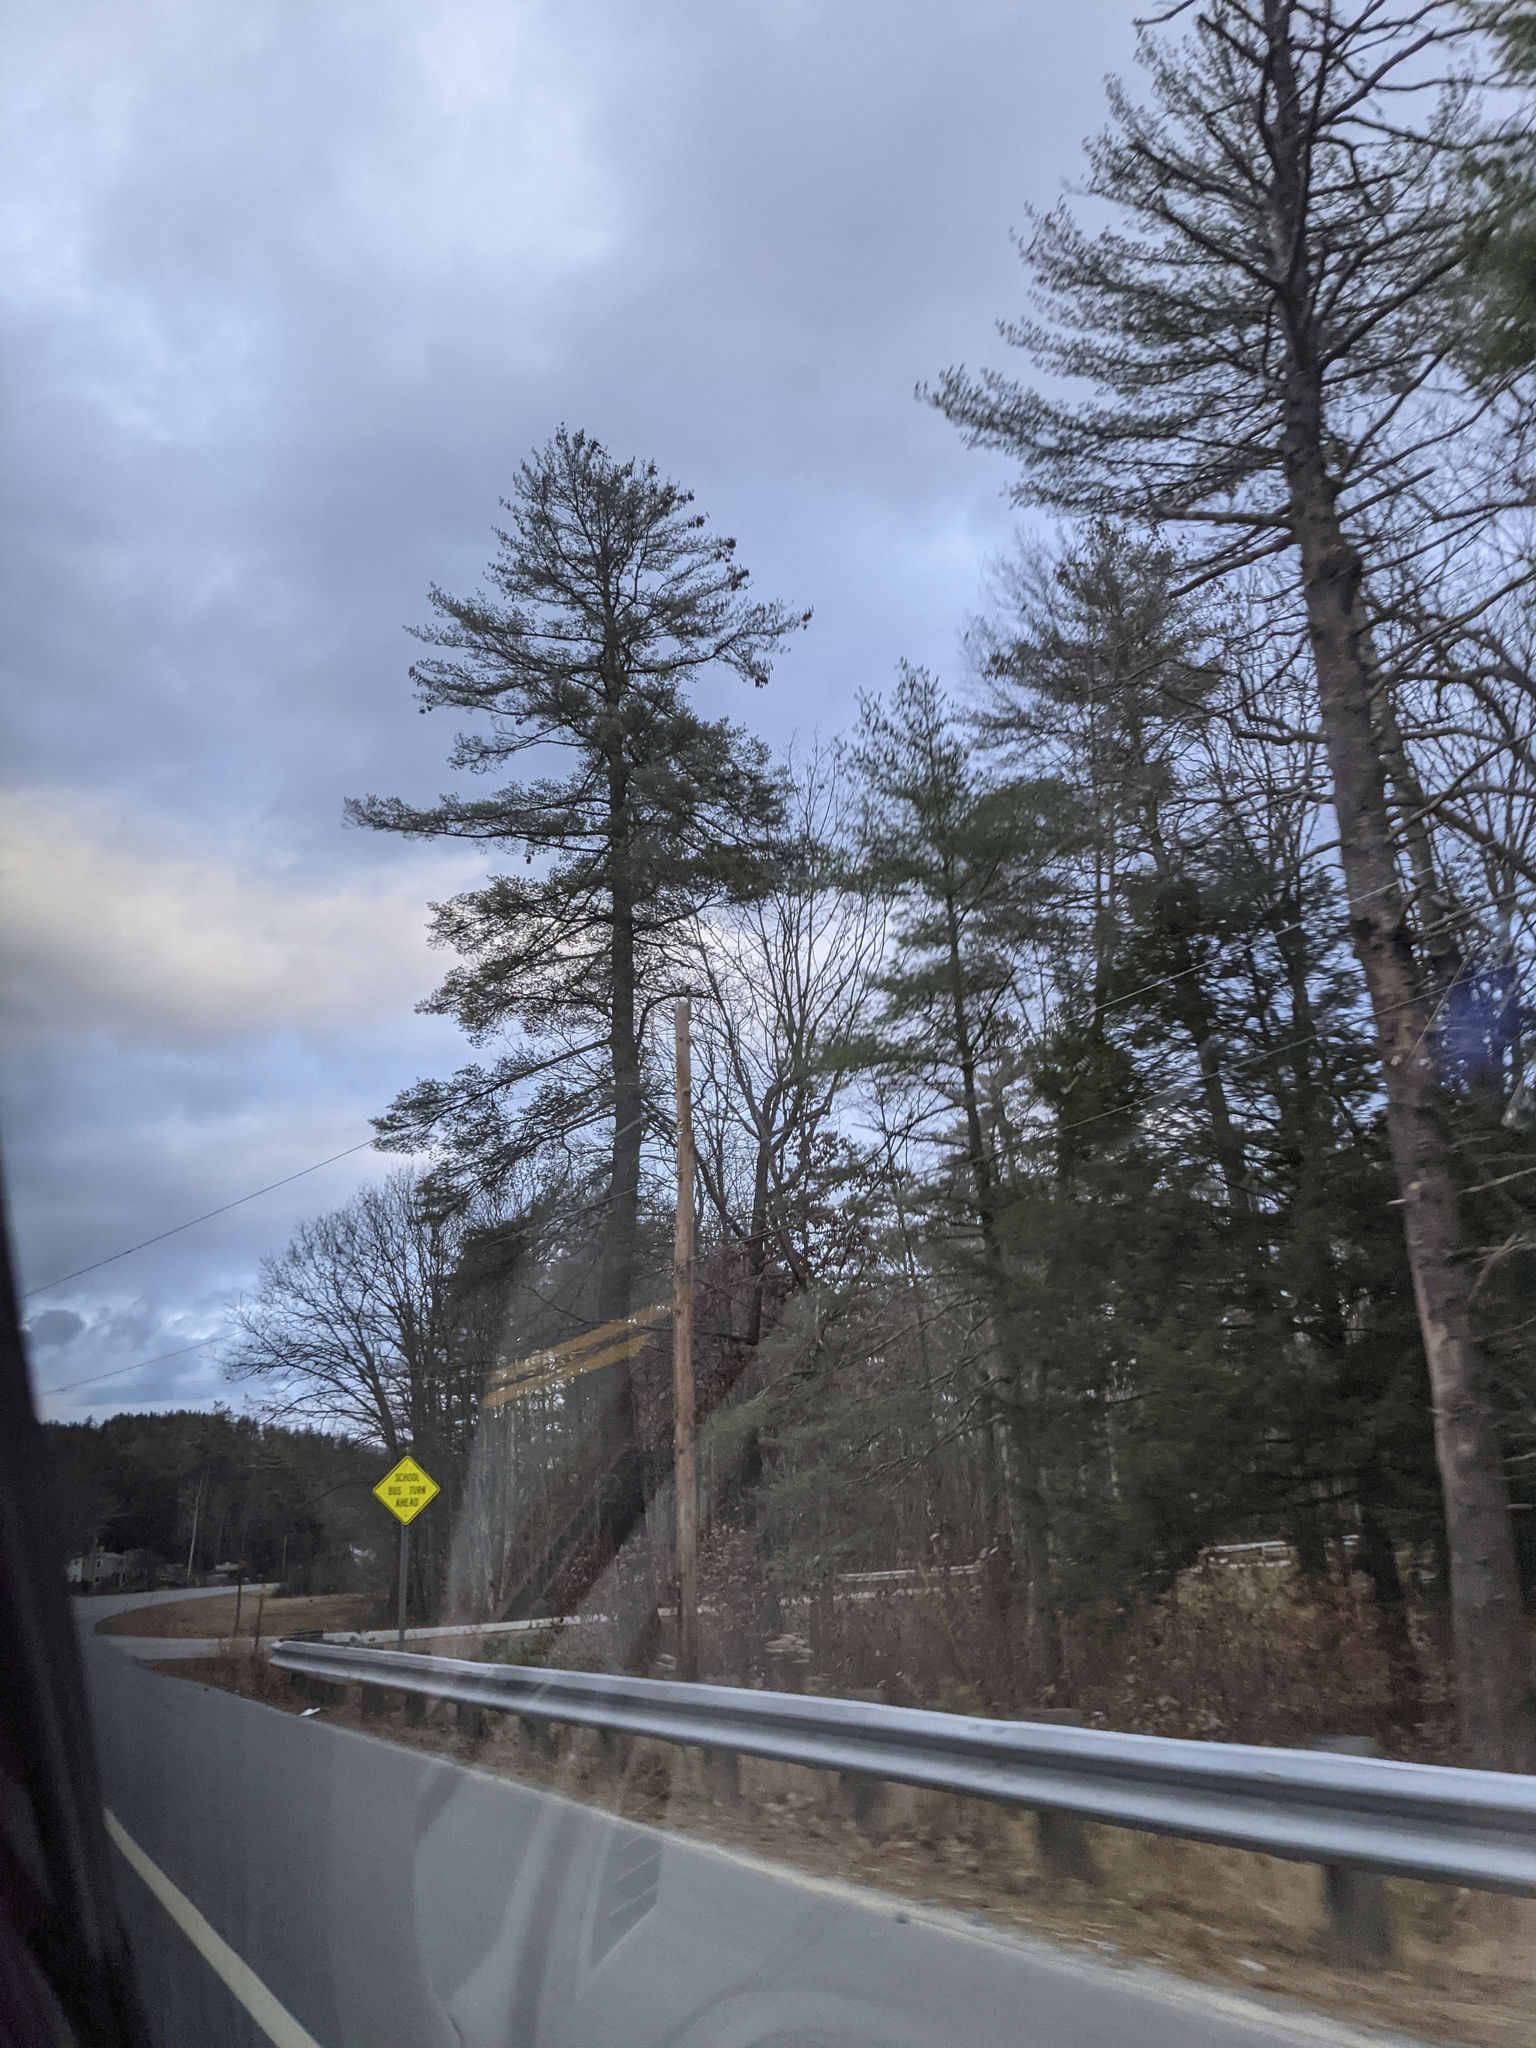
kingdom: Plantae
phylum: Tracheophyta
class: Pinopsida
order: Pinales
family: Pinaceae
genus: Pinus
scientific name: Pinus strobus
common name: Weymouth pine
